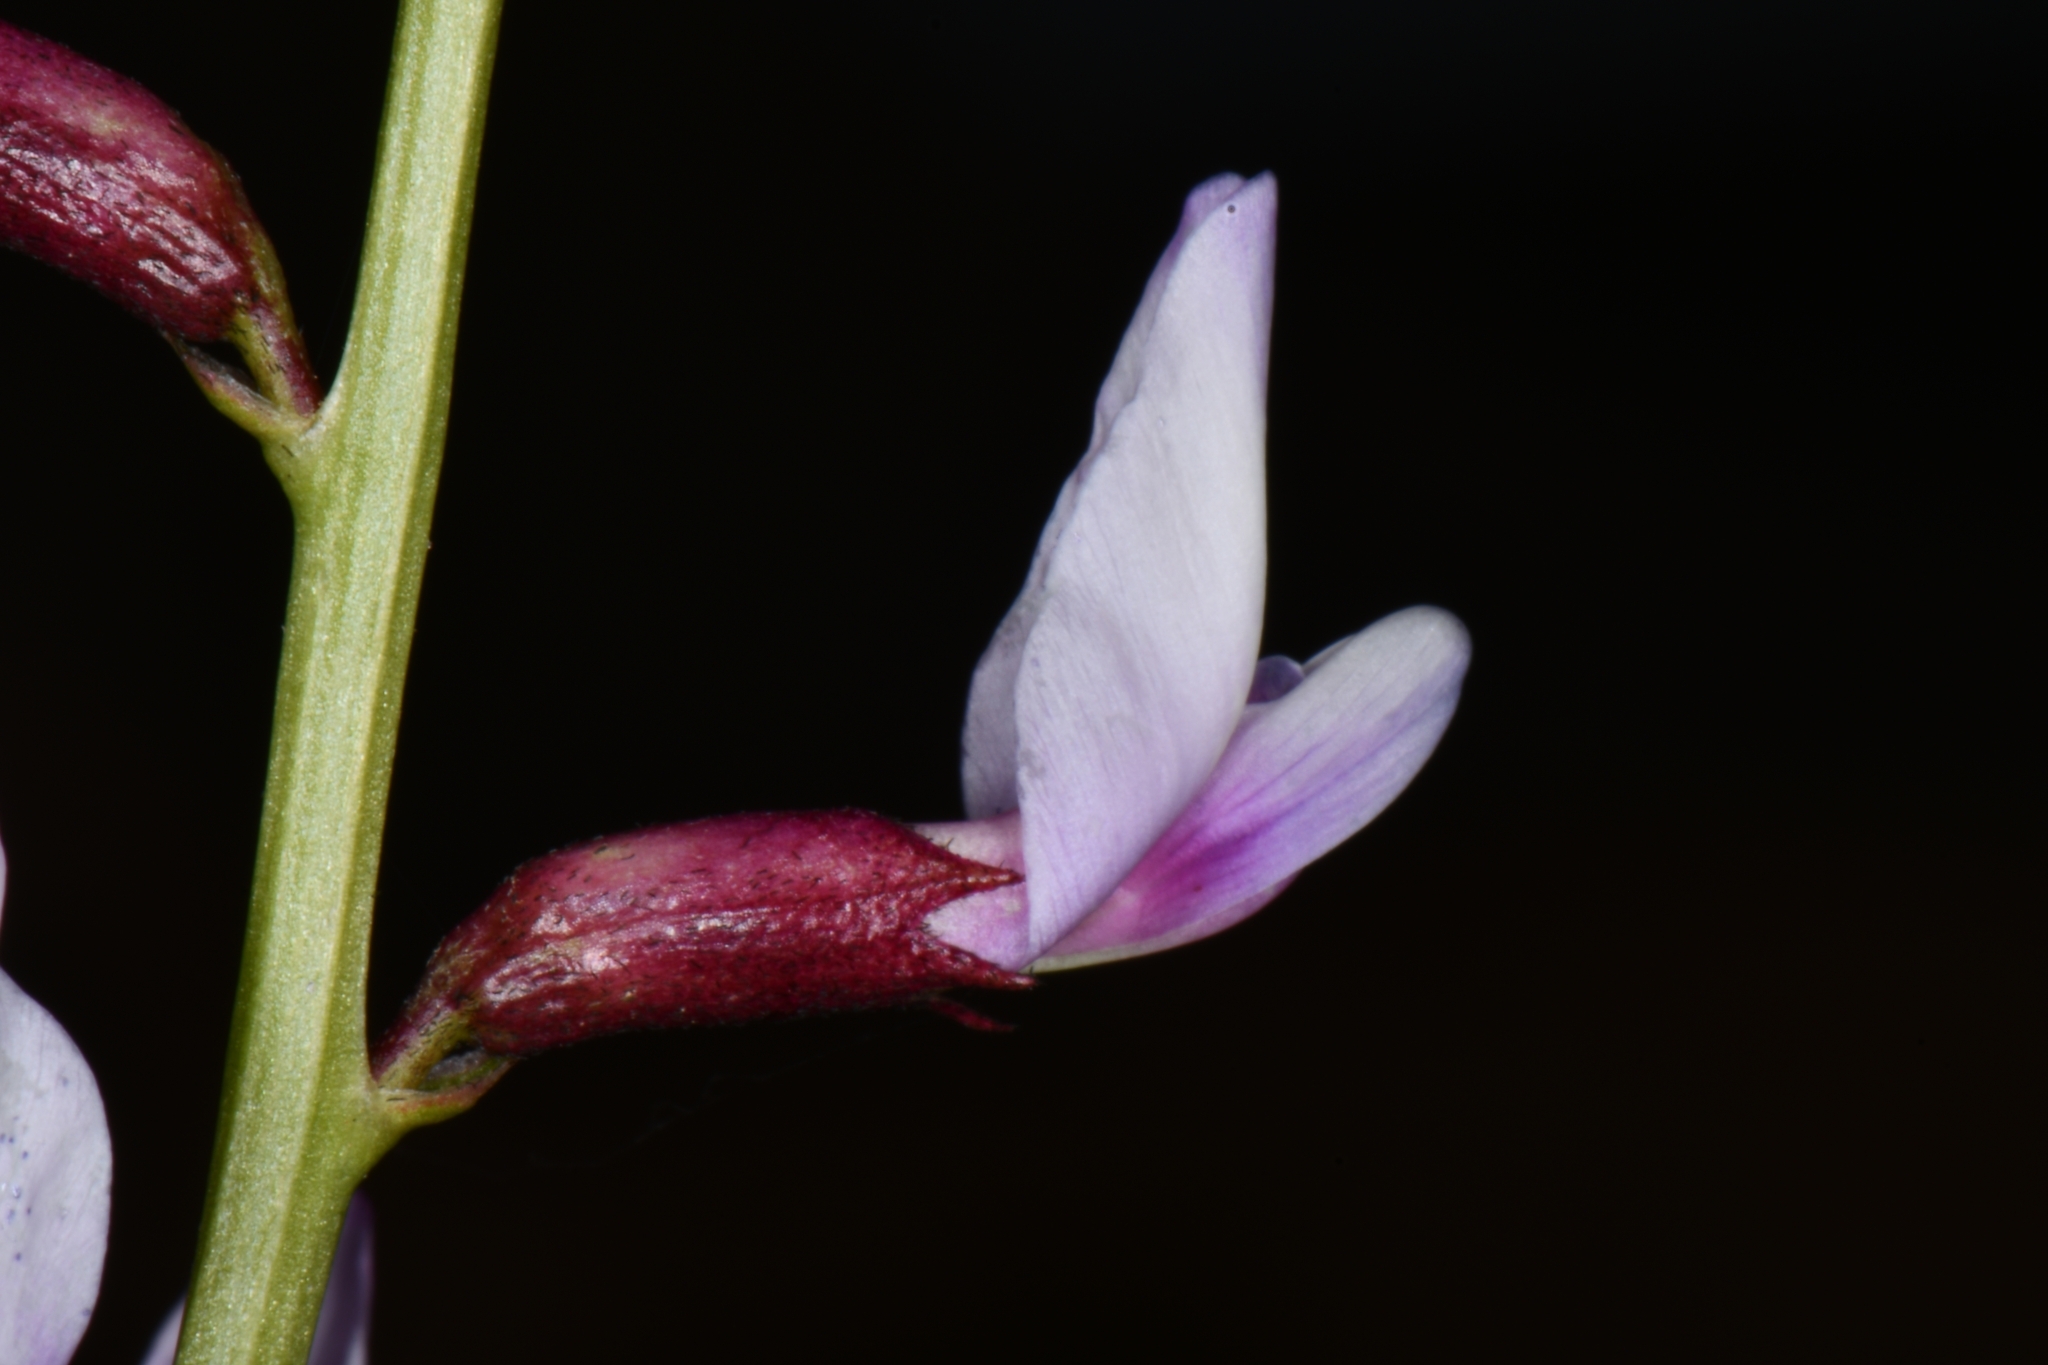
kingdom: Plantae
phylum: Tracheophyta
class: Magnoliopsida
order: Fabales
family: Fabaceae
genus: Astragalus
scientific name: Astragalus preussii
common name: Preuss's milk-vetch
